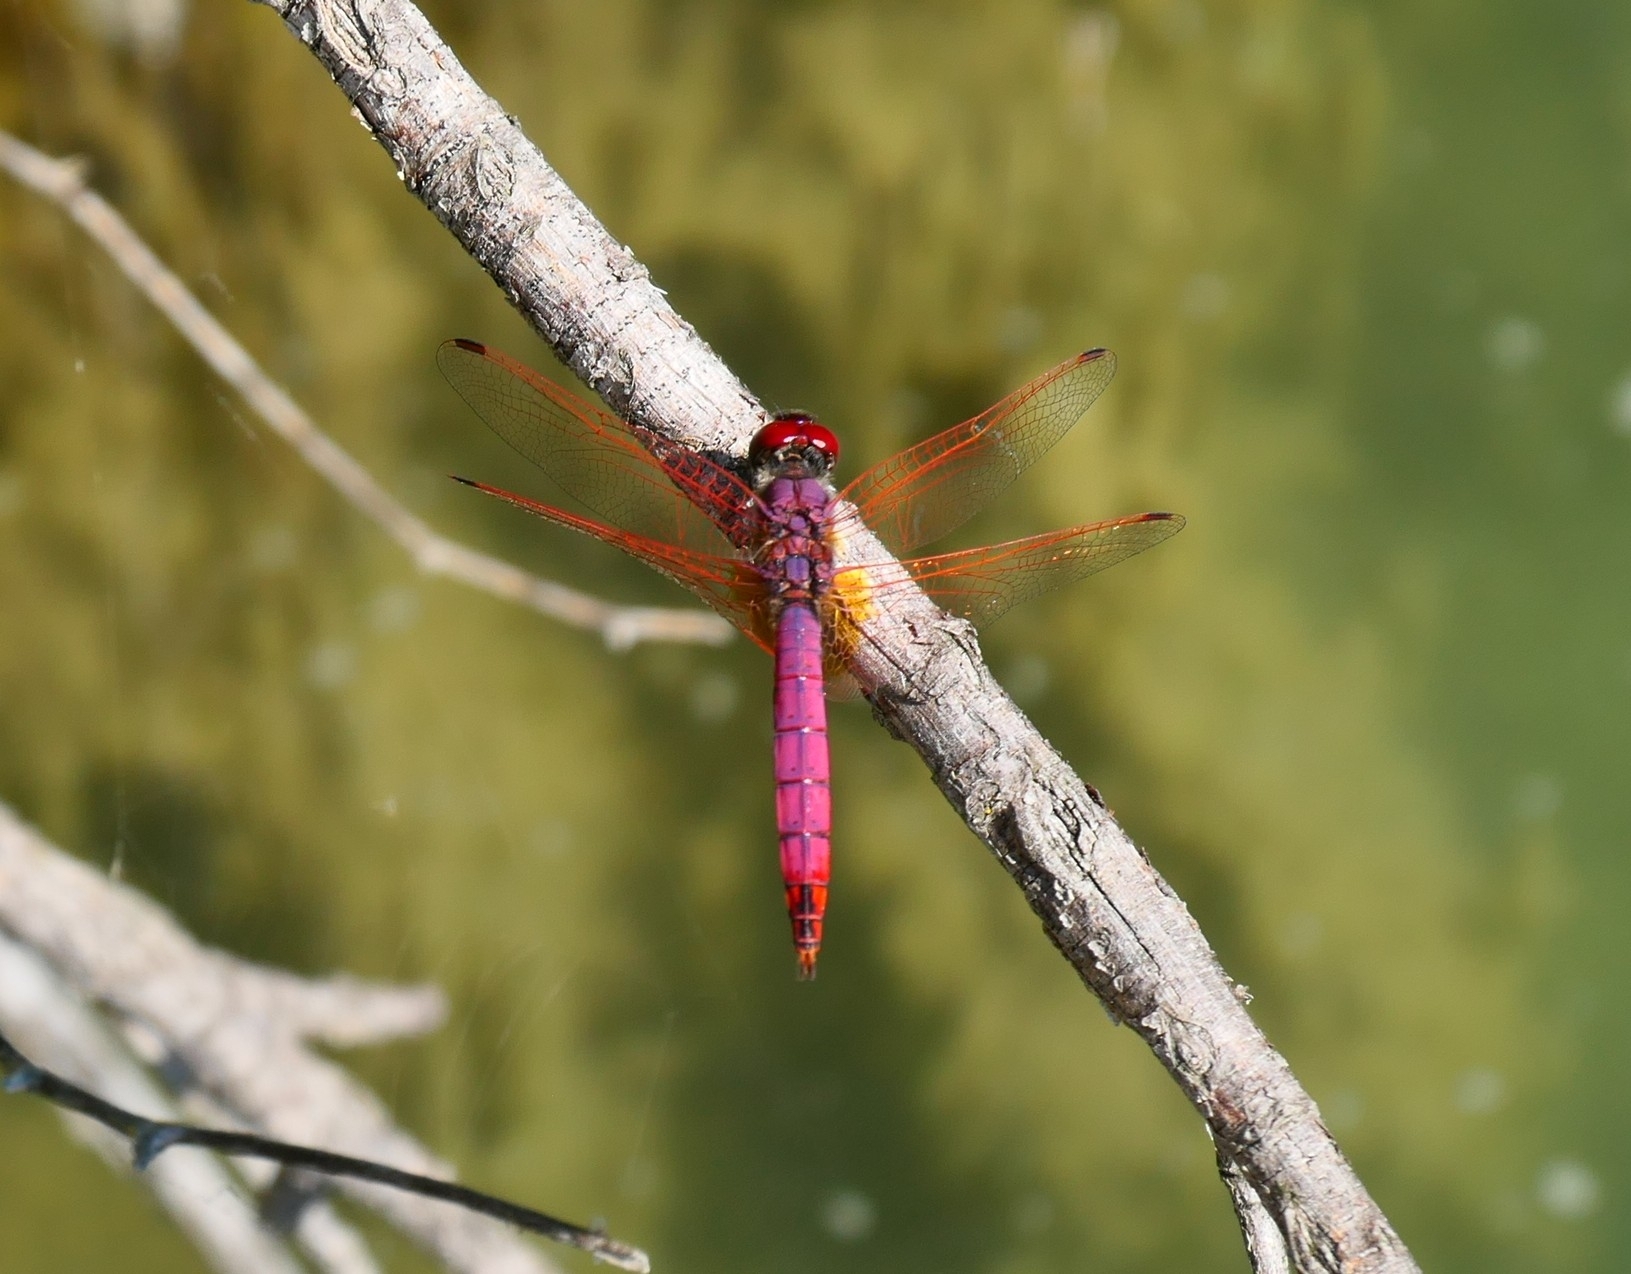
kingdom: Animalia
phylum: Arthropoda
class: Insecta
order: Odonata
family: Libellulidae
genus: Trithemis
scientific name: Trithemis annulata
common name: Violet dropwing
